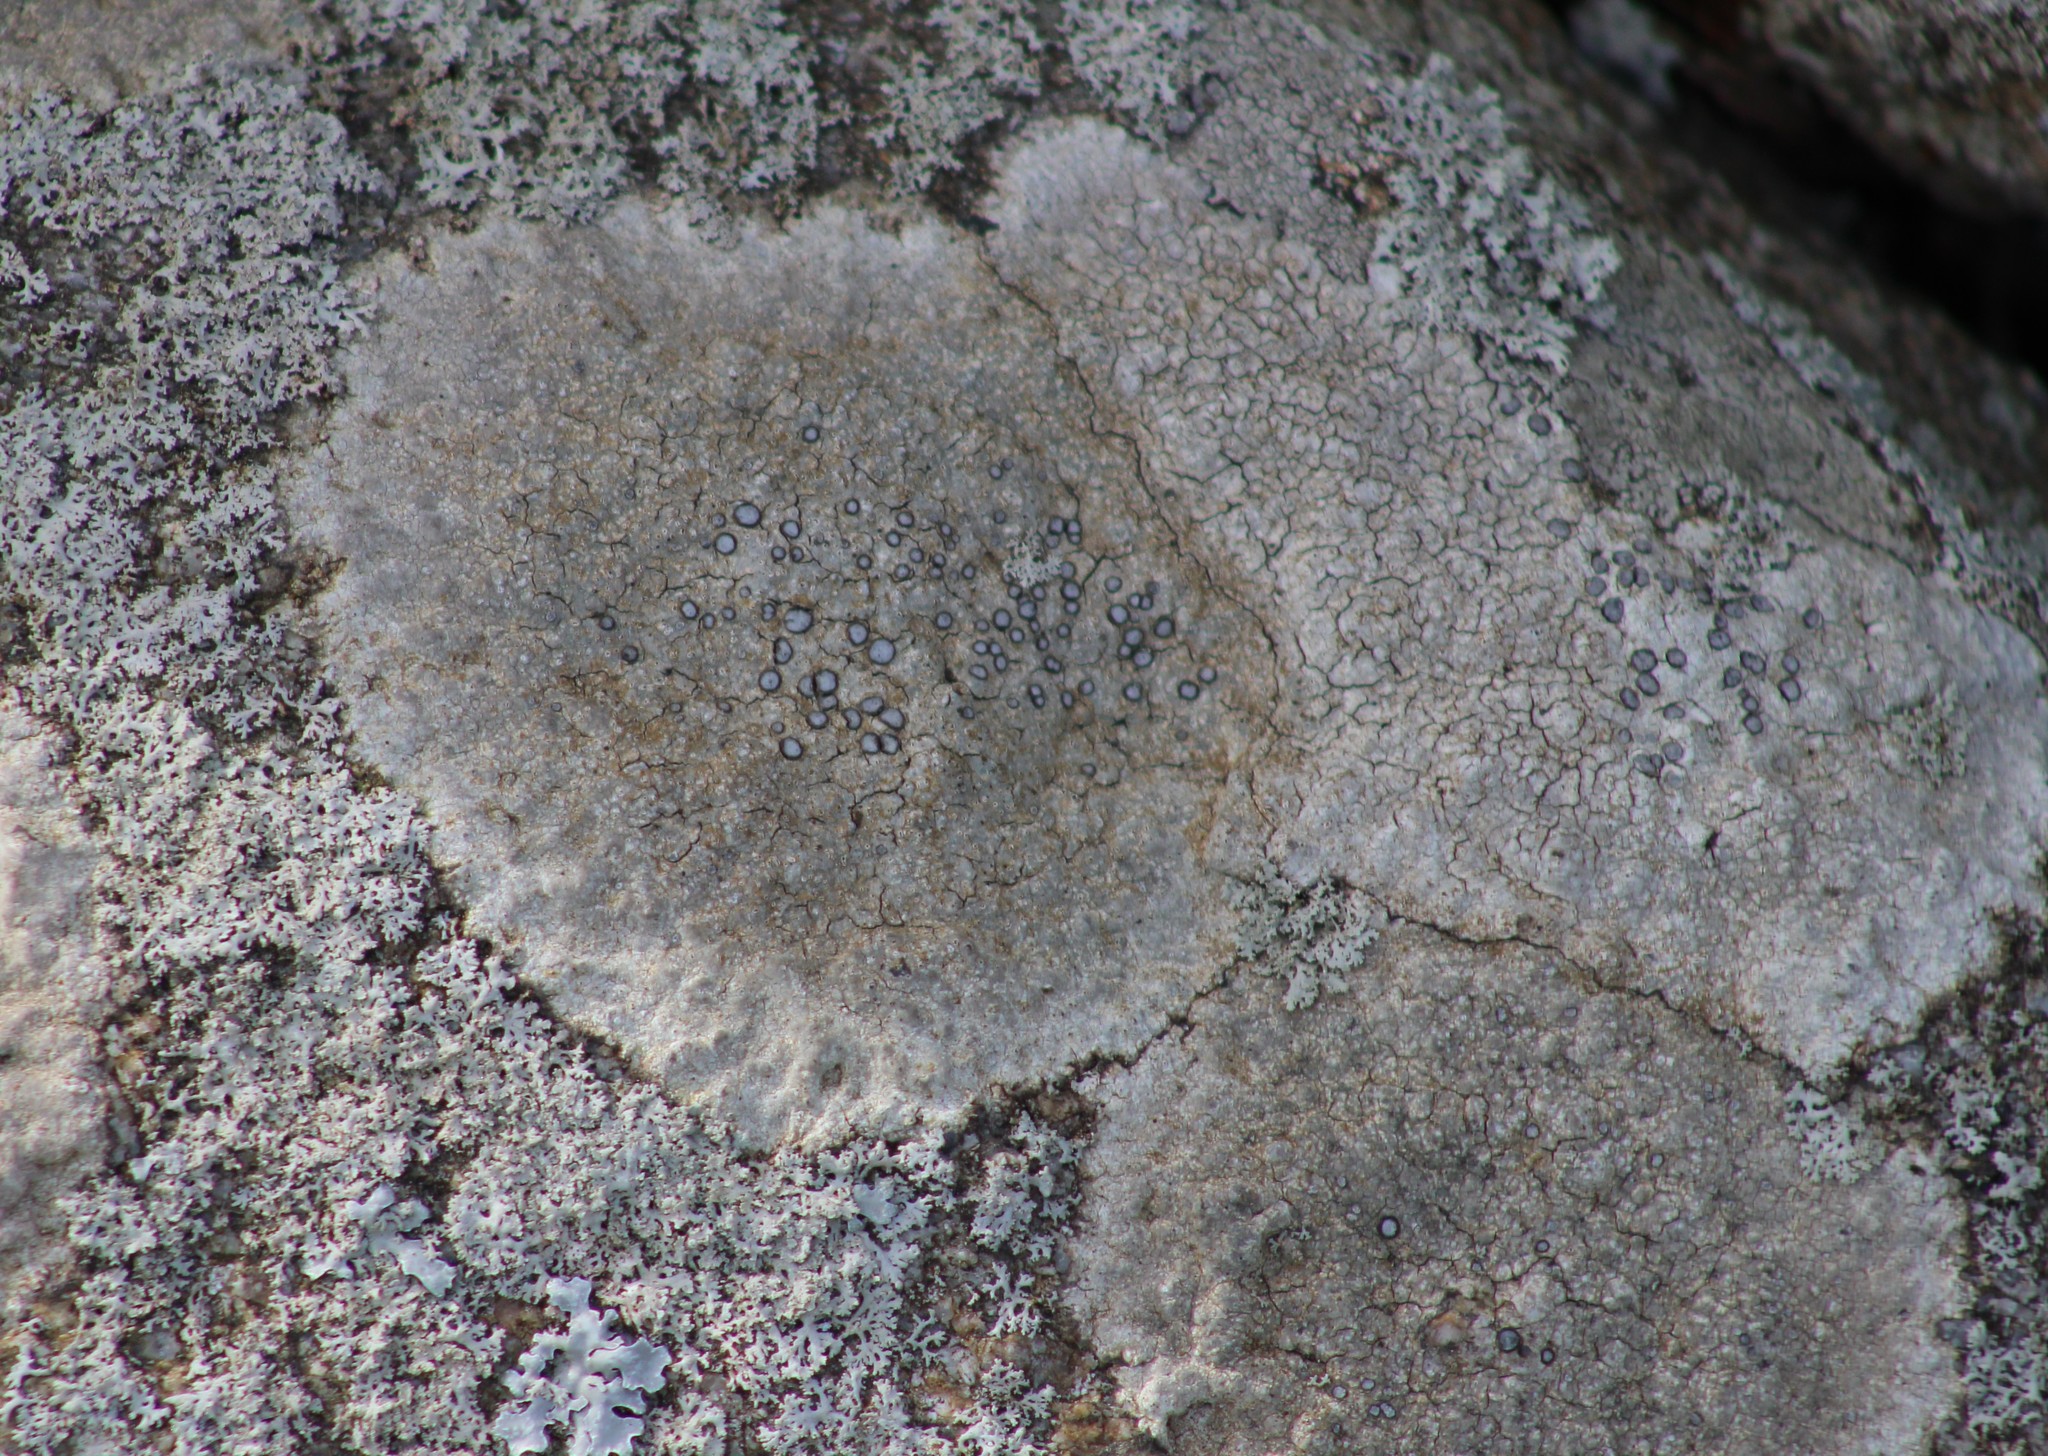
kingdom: Fungi
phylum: Ascomycota
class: Lecanoromycetes
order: Lecideales
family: Lecideaceae
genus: Porpidia
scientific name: Porpidia albocaerulescens
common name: Smokey-eyed boulder lichen
